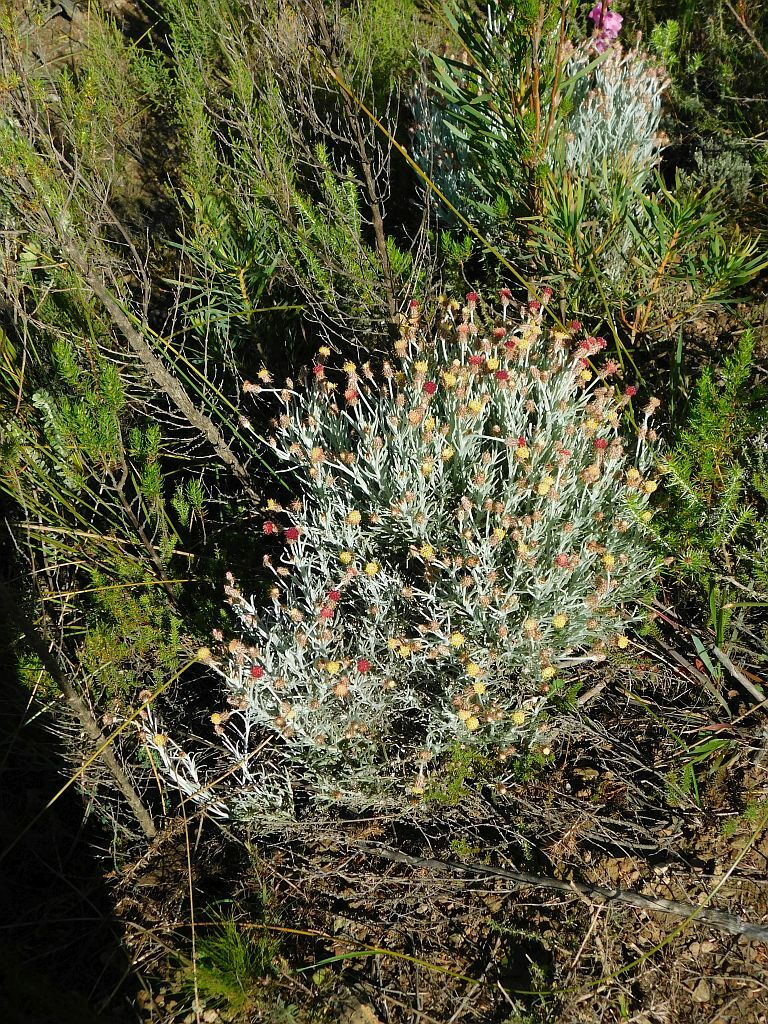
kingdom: Plantae
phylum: Tracheophyta
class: Magnoliopsida
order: Asterales
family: Asteraceae
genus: Syncarpha
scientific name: Syncarpha gnaphaloides
